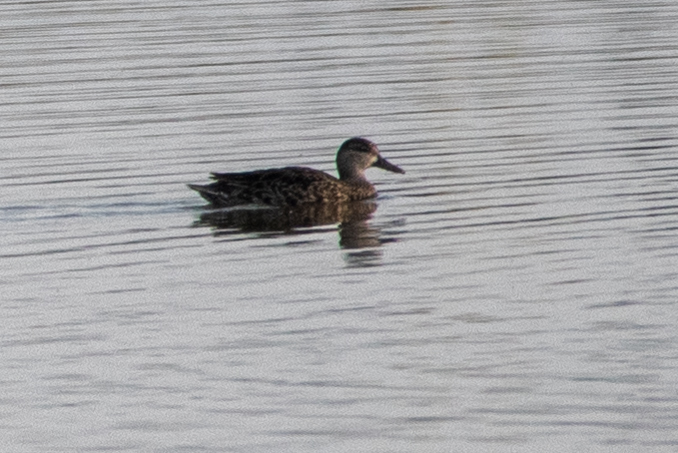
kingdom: Animalia
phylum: Chordata
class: Aves
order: Anseriformes
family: Anatidae
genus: Spatula
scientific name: Spatula discors
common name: Blue-winged teal
